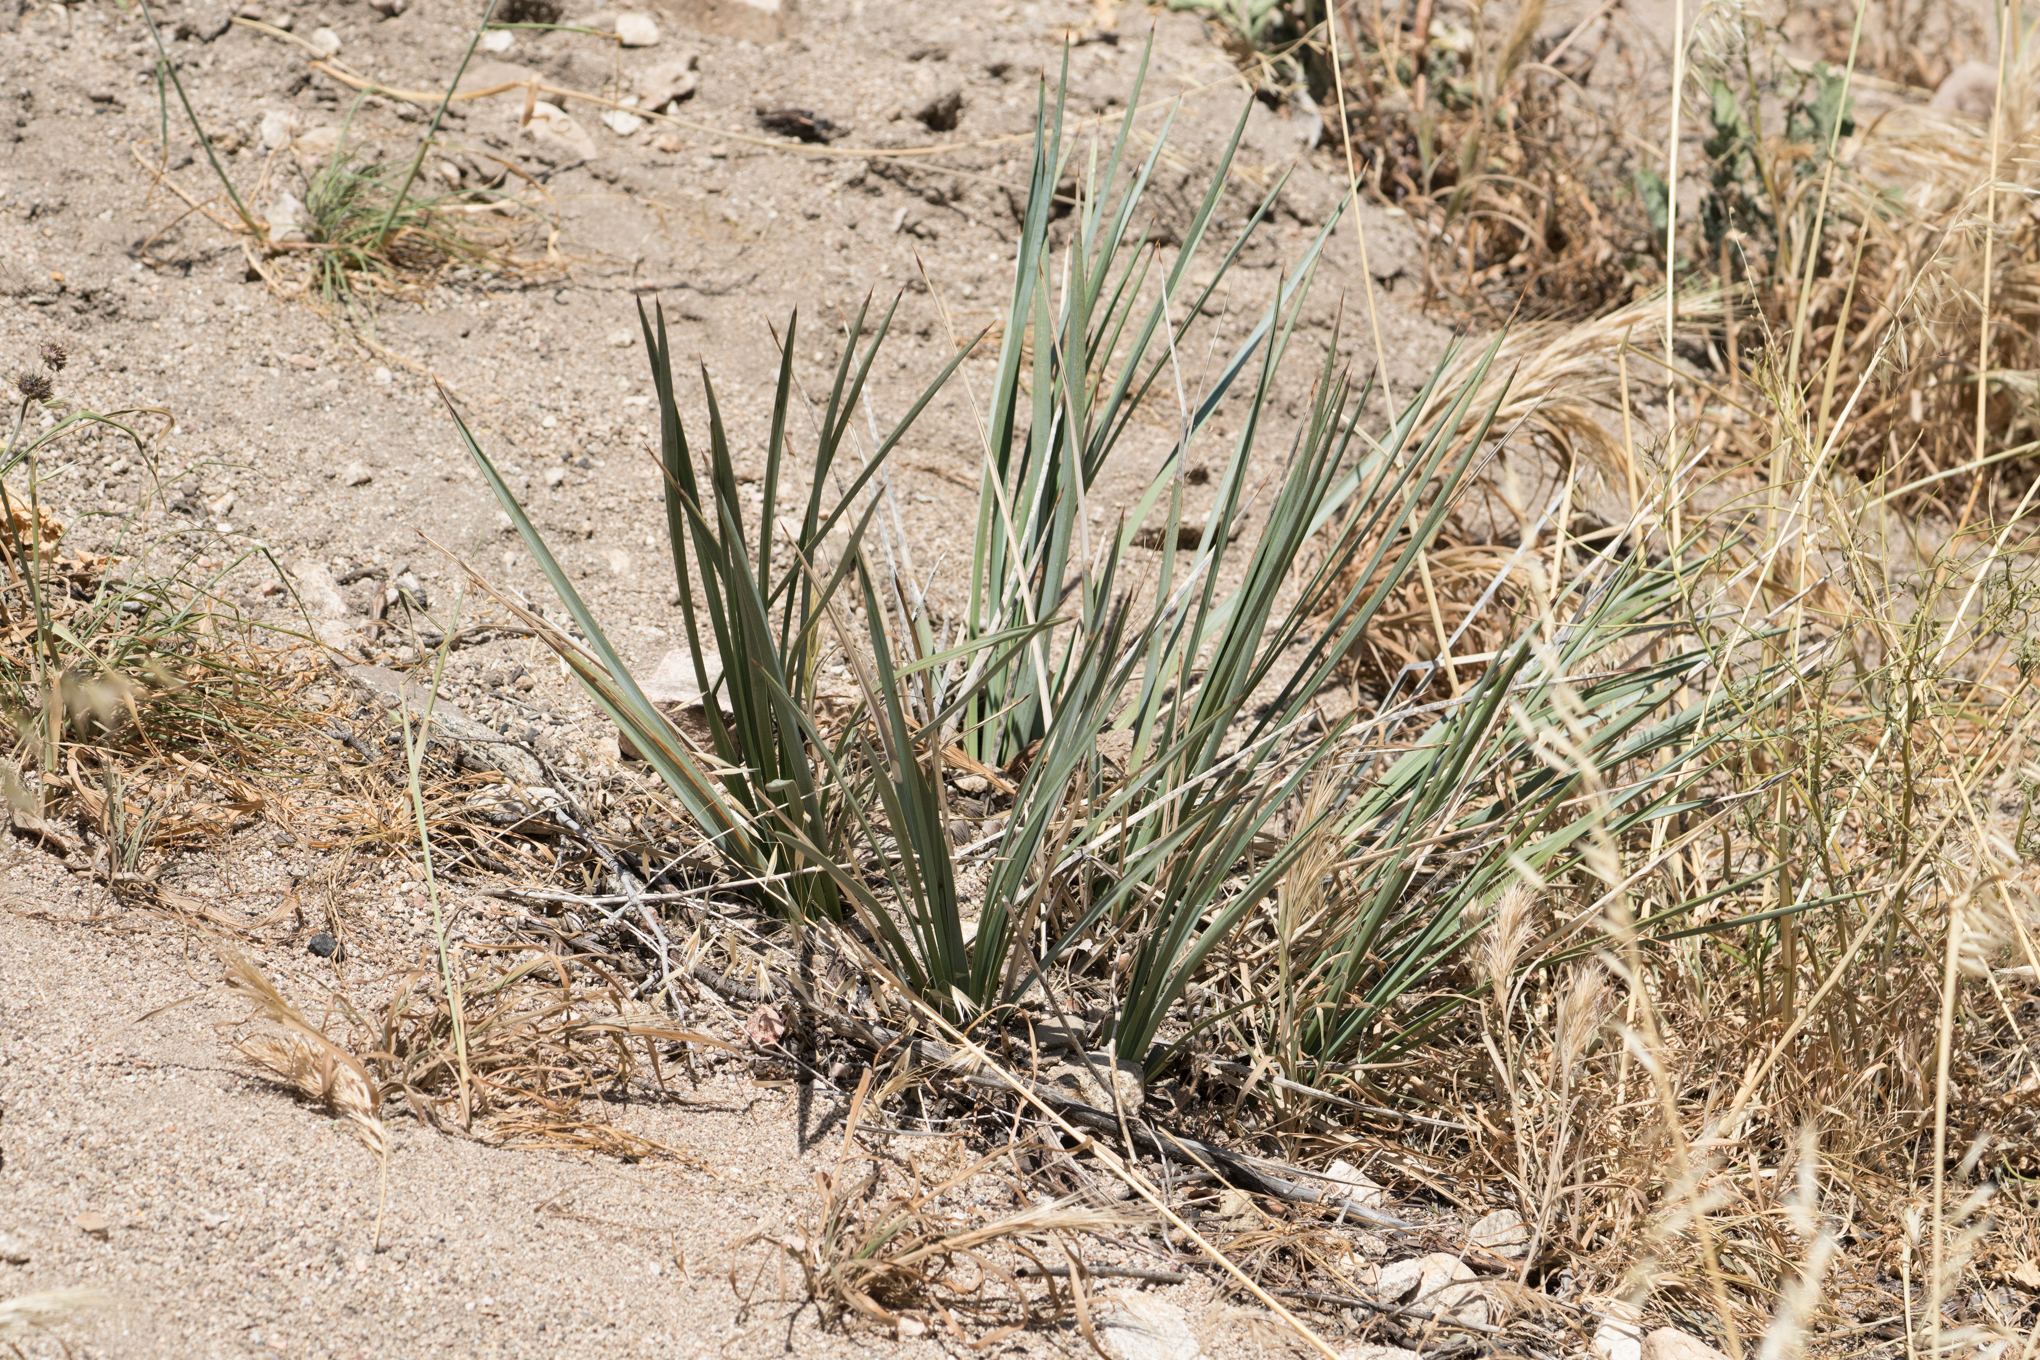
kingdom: Plantae
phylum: Tracheophyta
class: Liliopsida
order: Asparagales
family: Asparagaceae
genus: Hesperoyucca
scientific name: Hesperoyucca whipplei
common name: Our lord's-candle
